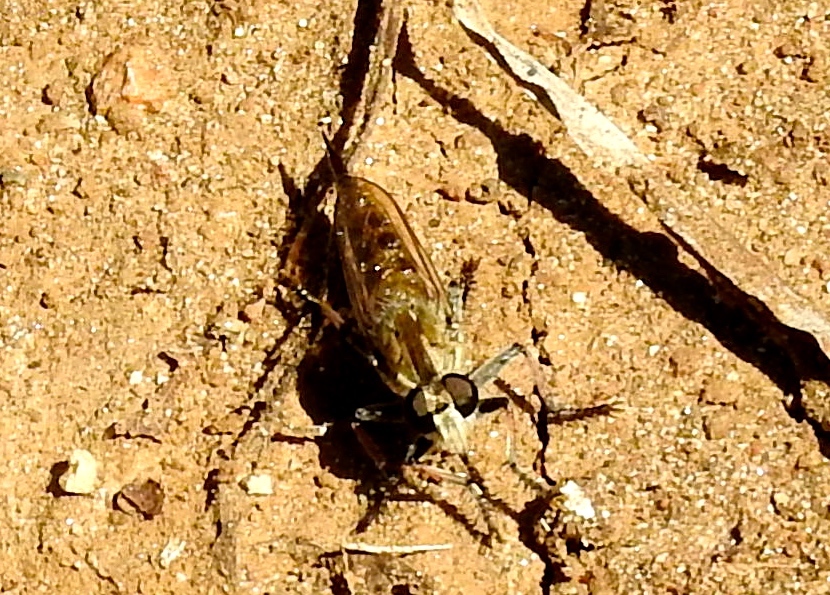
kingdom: Animalia
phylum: Arthropoda
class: Insecta
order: Diptera
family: Asilidae
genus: Efferia
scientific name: Efferia
